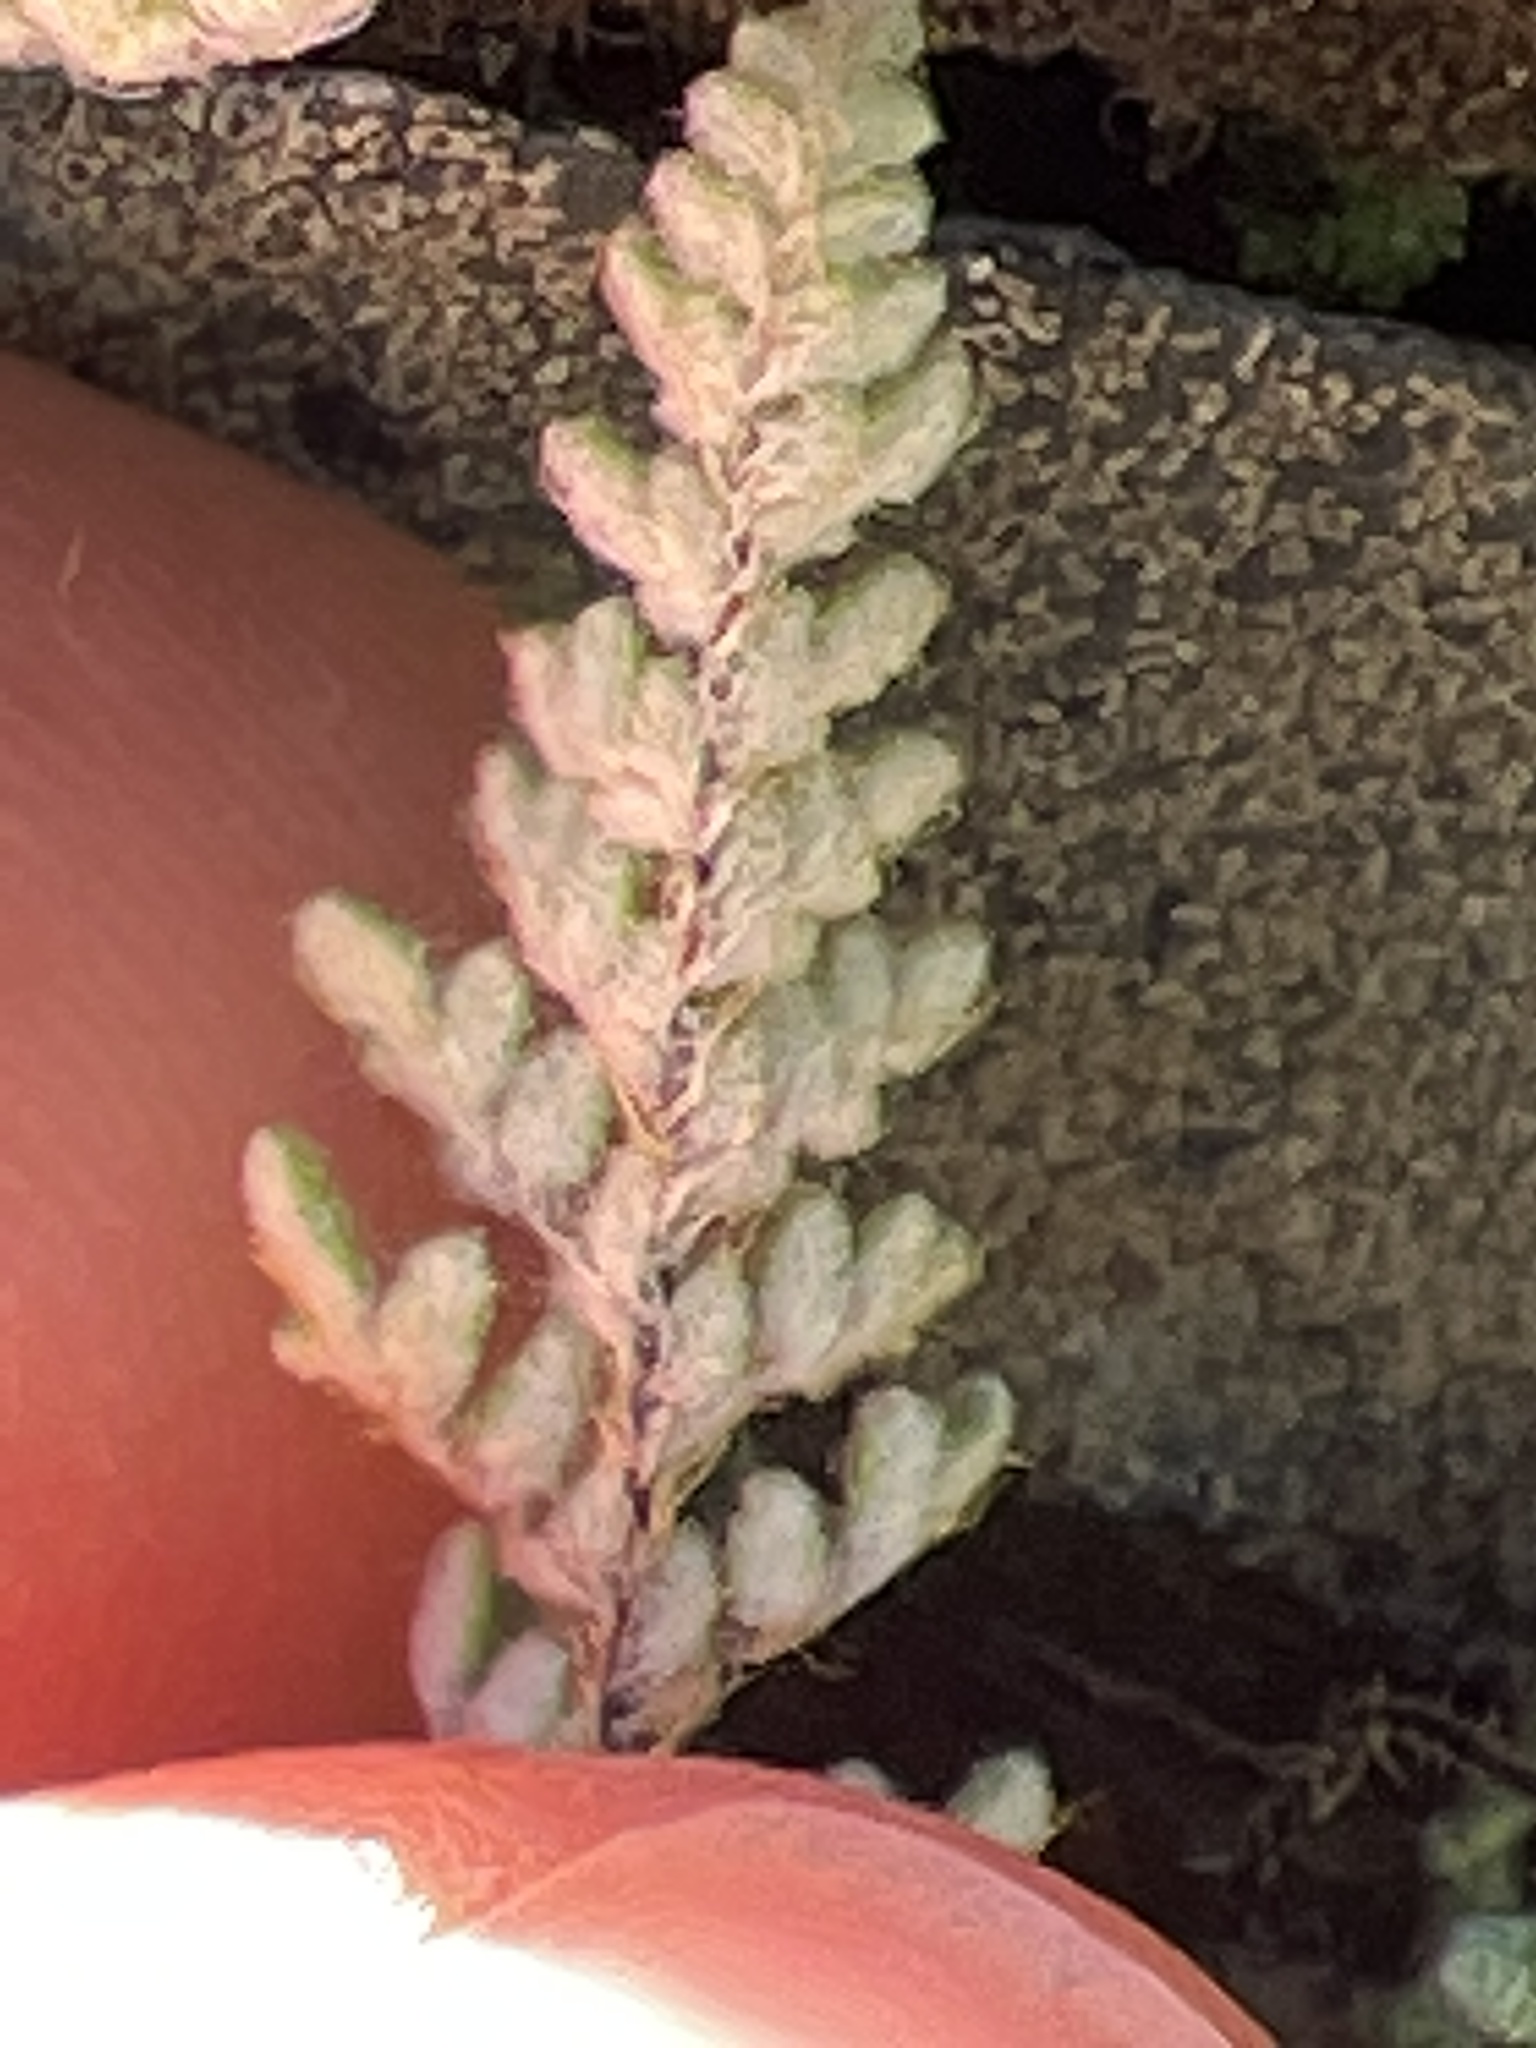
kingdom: Plantae
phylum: Tracheophyta
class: Polypodiopsida
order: Polypodiales
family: Pteridaceae
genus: Myriopteris
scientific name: Myriopteris gracillima
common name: Lace fern
